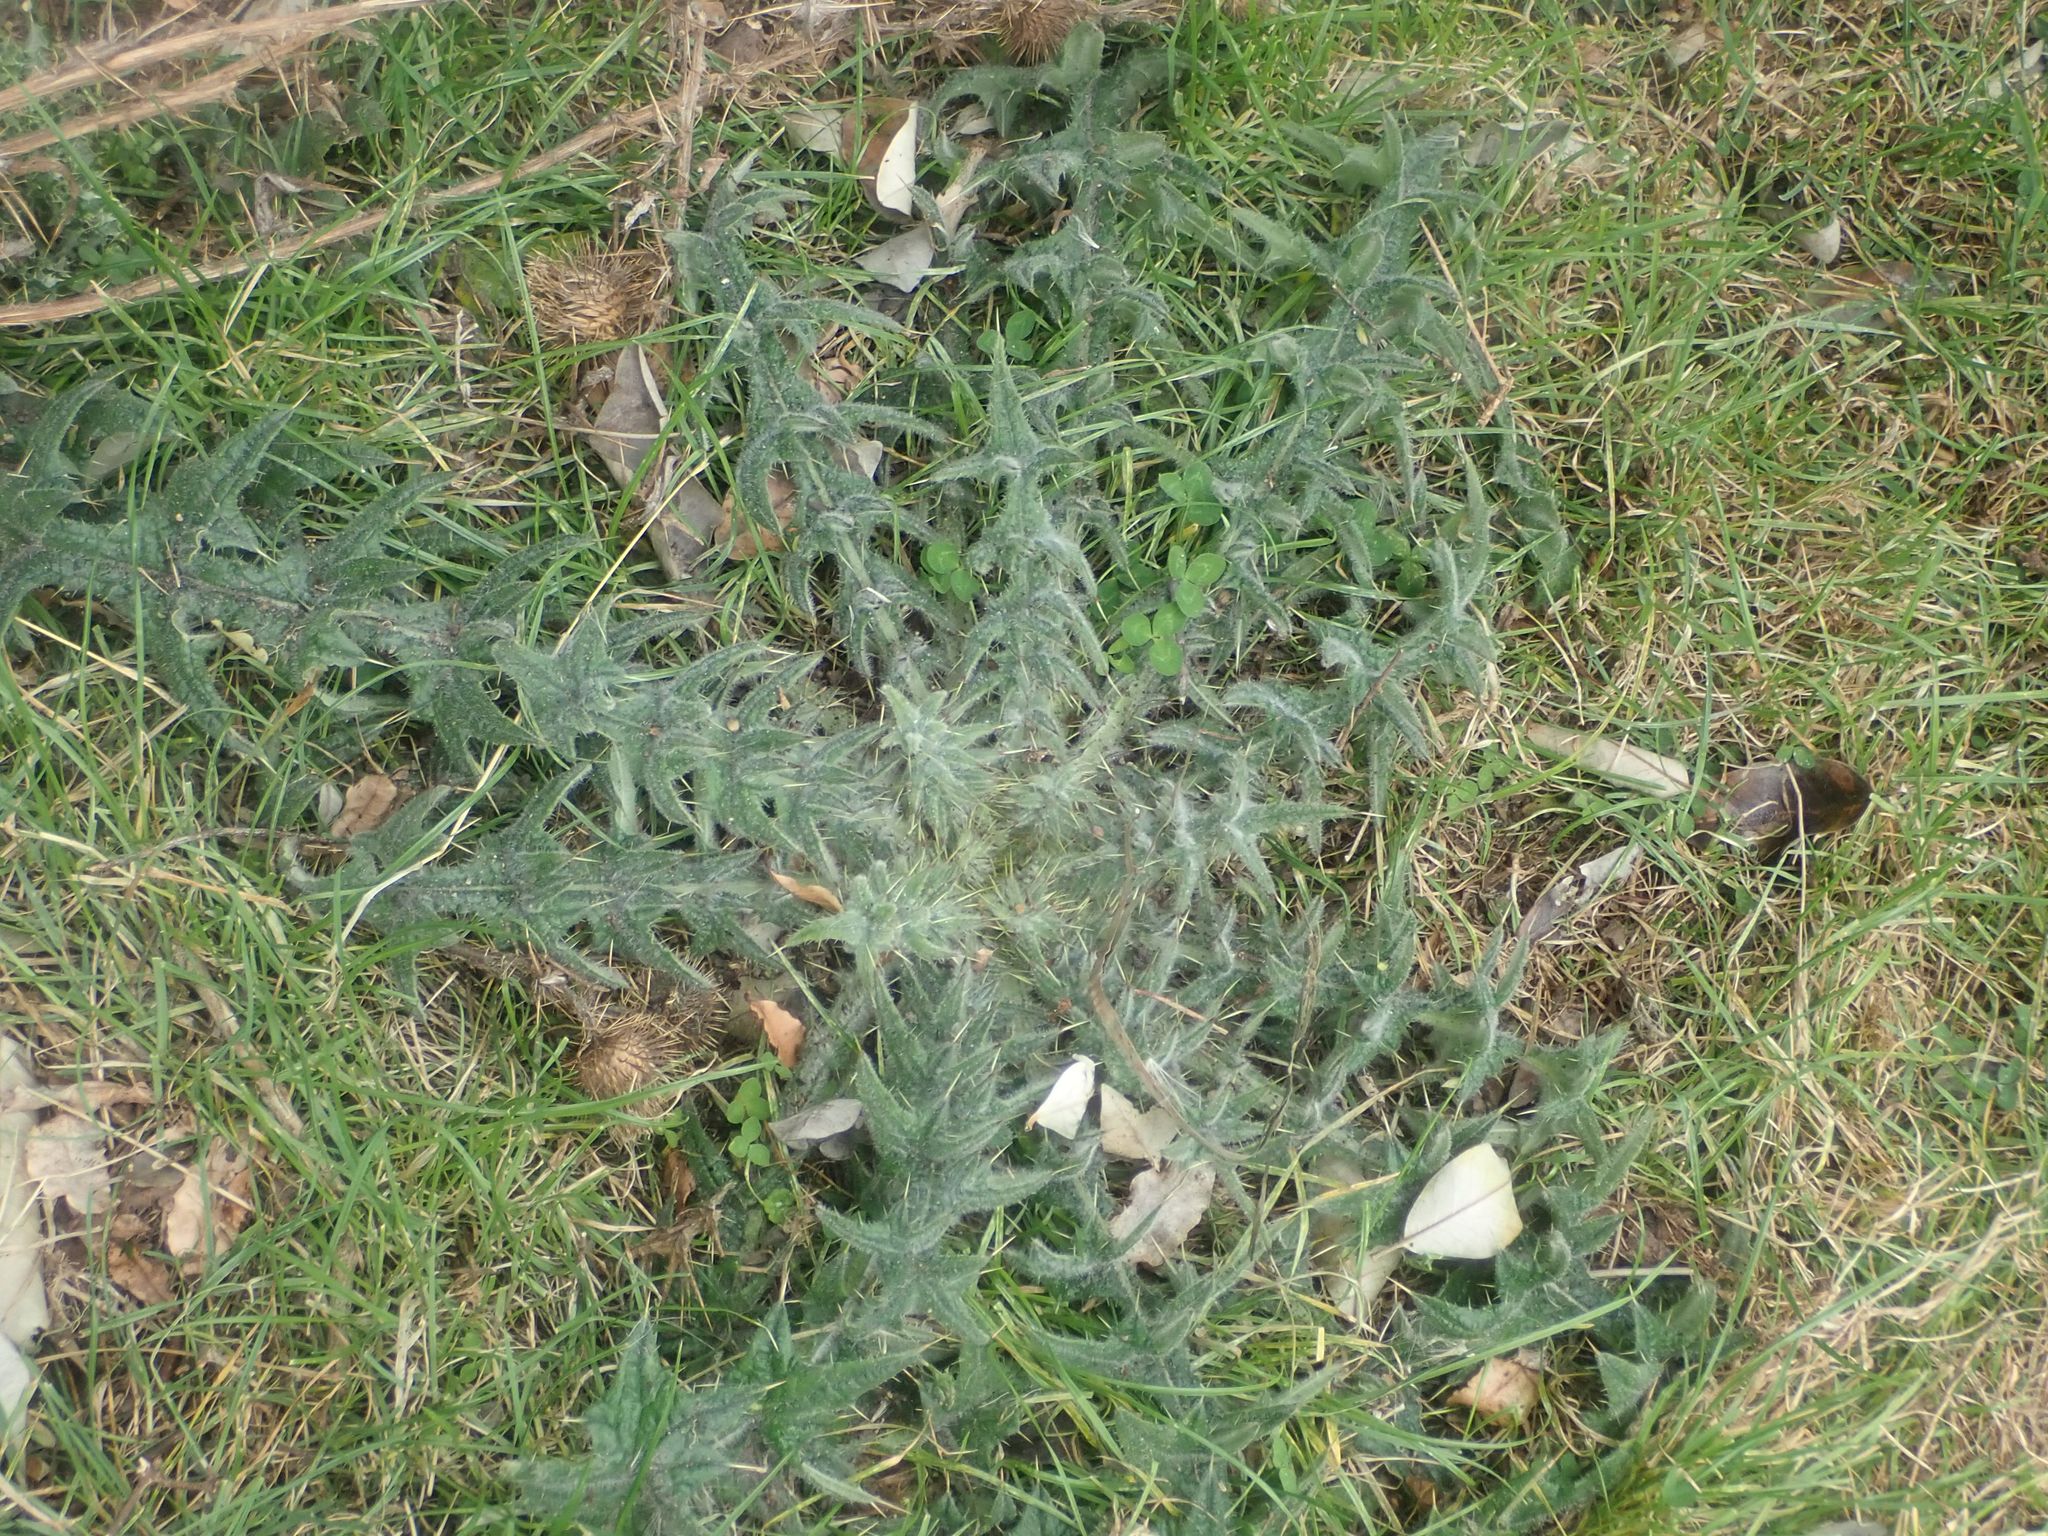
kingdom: Plantae
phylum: Tracheophyta
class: Magnoliopsida
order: Asterales
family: Asteraceae
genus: Cirsium
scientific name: Cirsium vulgare
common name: Bull thistle
